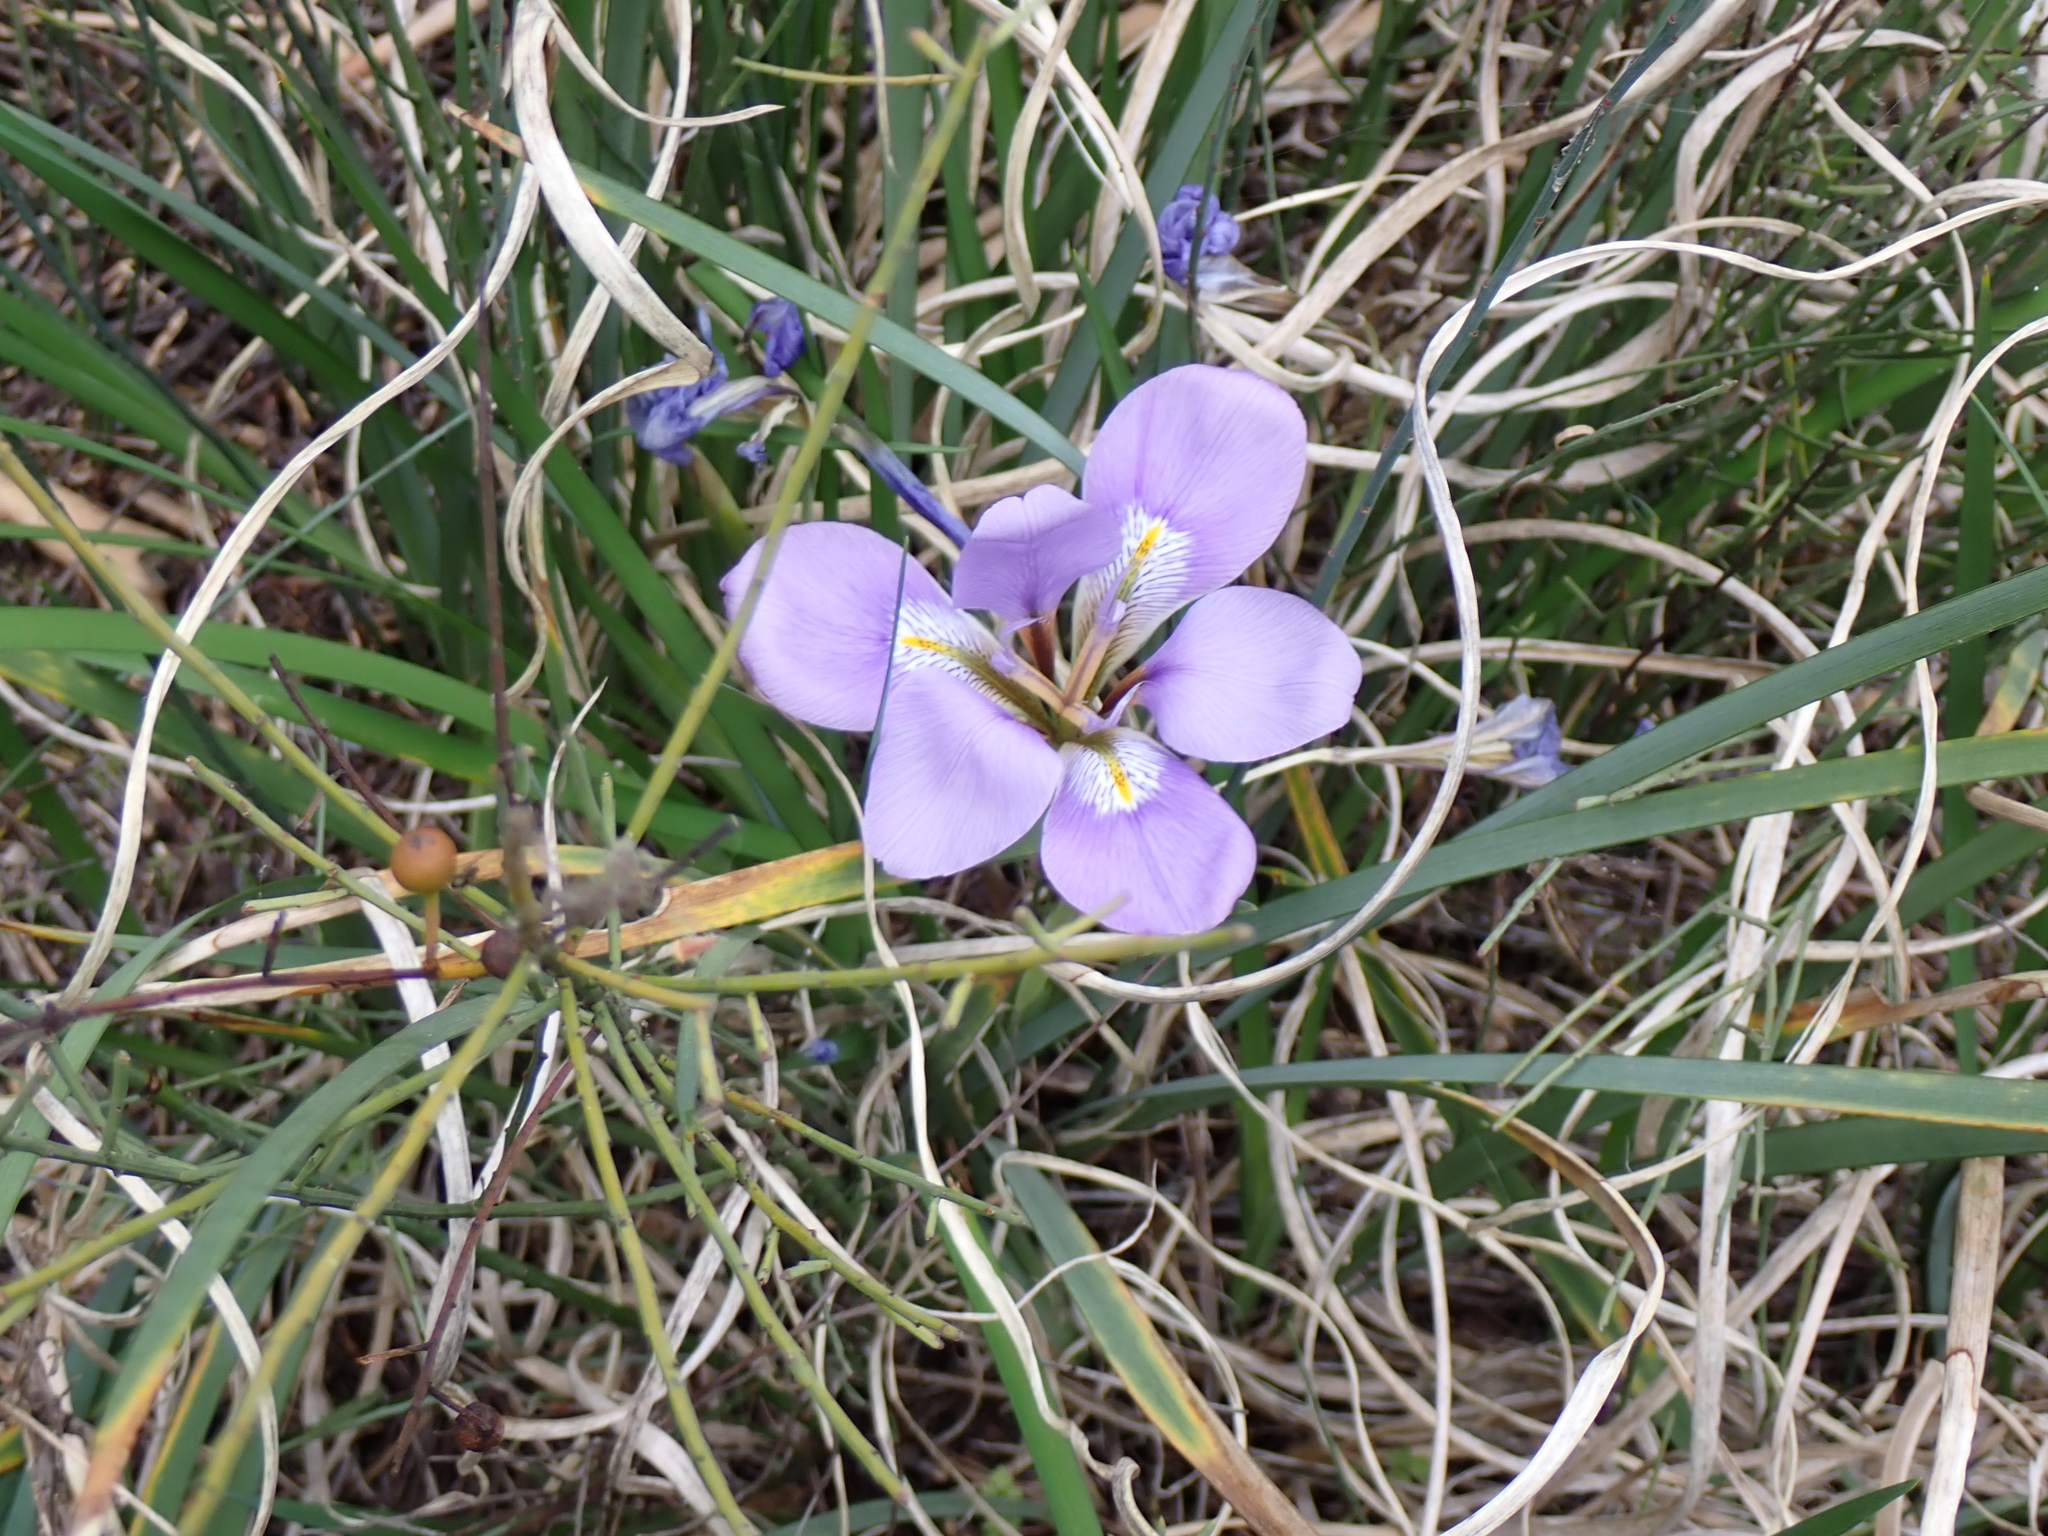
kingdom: Plantae
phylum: Tracheophyta
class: Liliopsida
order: Asparagales
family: Iridaceae
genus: Iris
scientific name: Iris unguicularis
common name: Algerian iris
